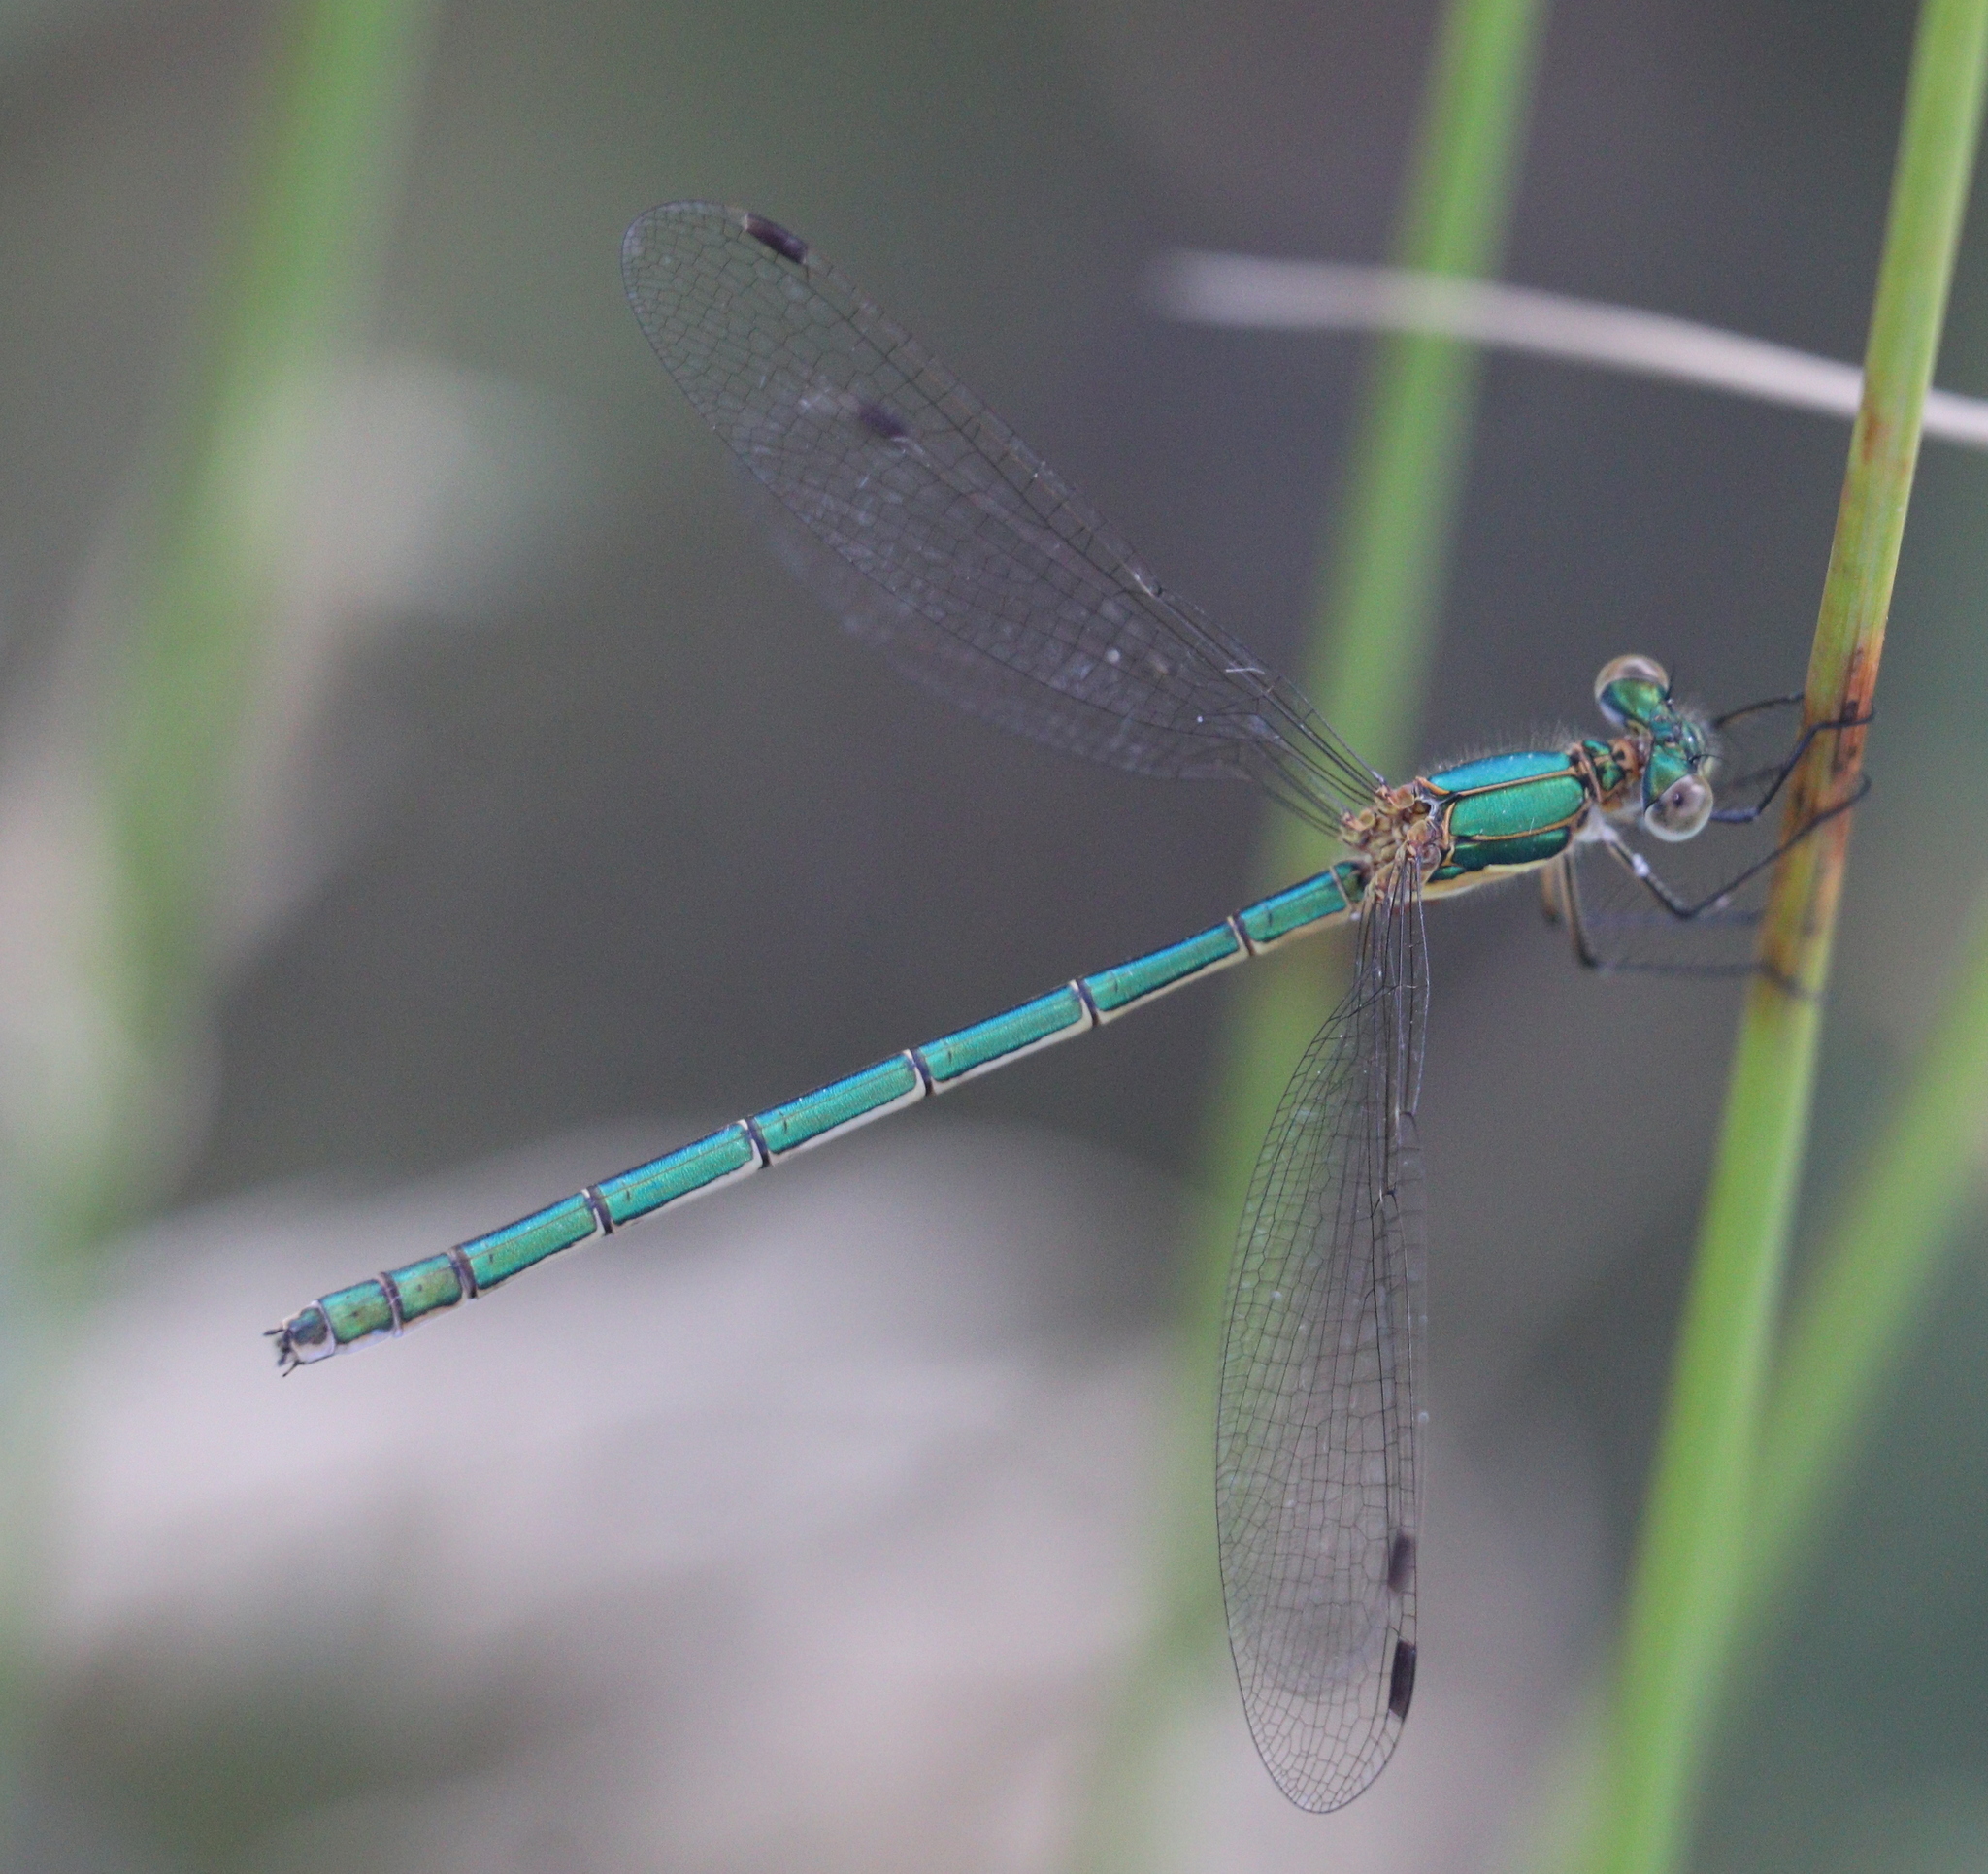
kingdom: Animalia
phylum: Arthropoda
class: Insecta
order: Odonata
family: Lestidae
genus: Lestes
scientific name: Lestes sponsa
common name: Common spreadwing
